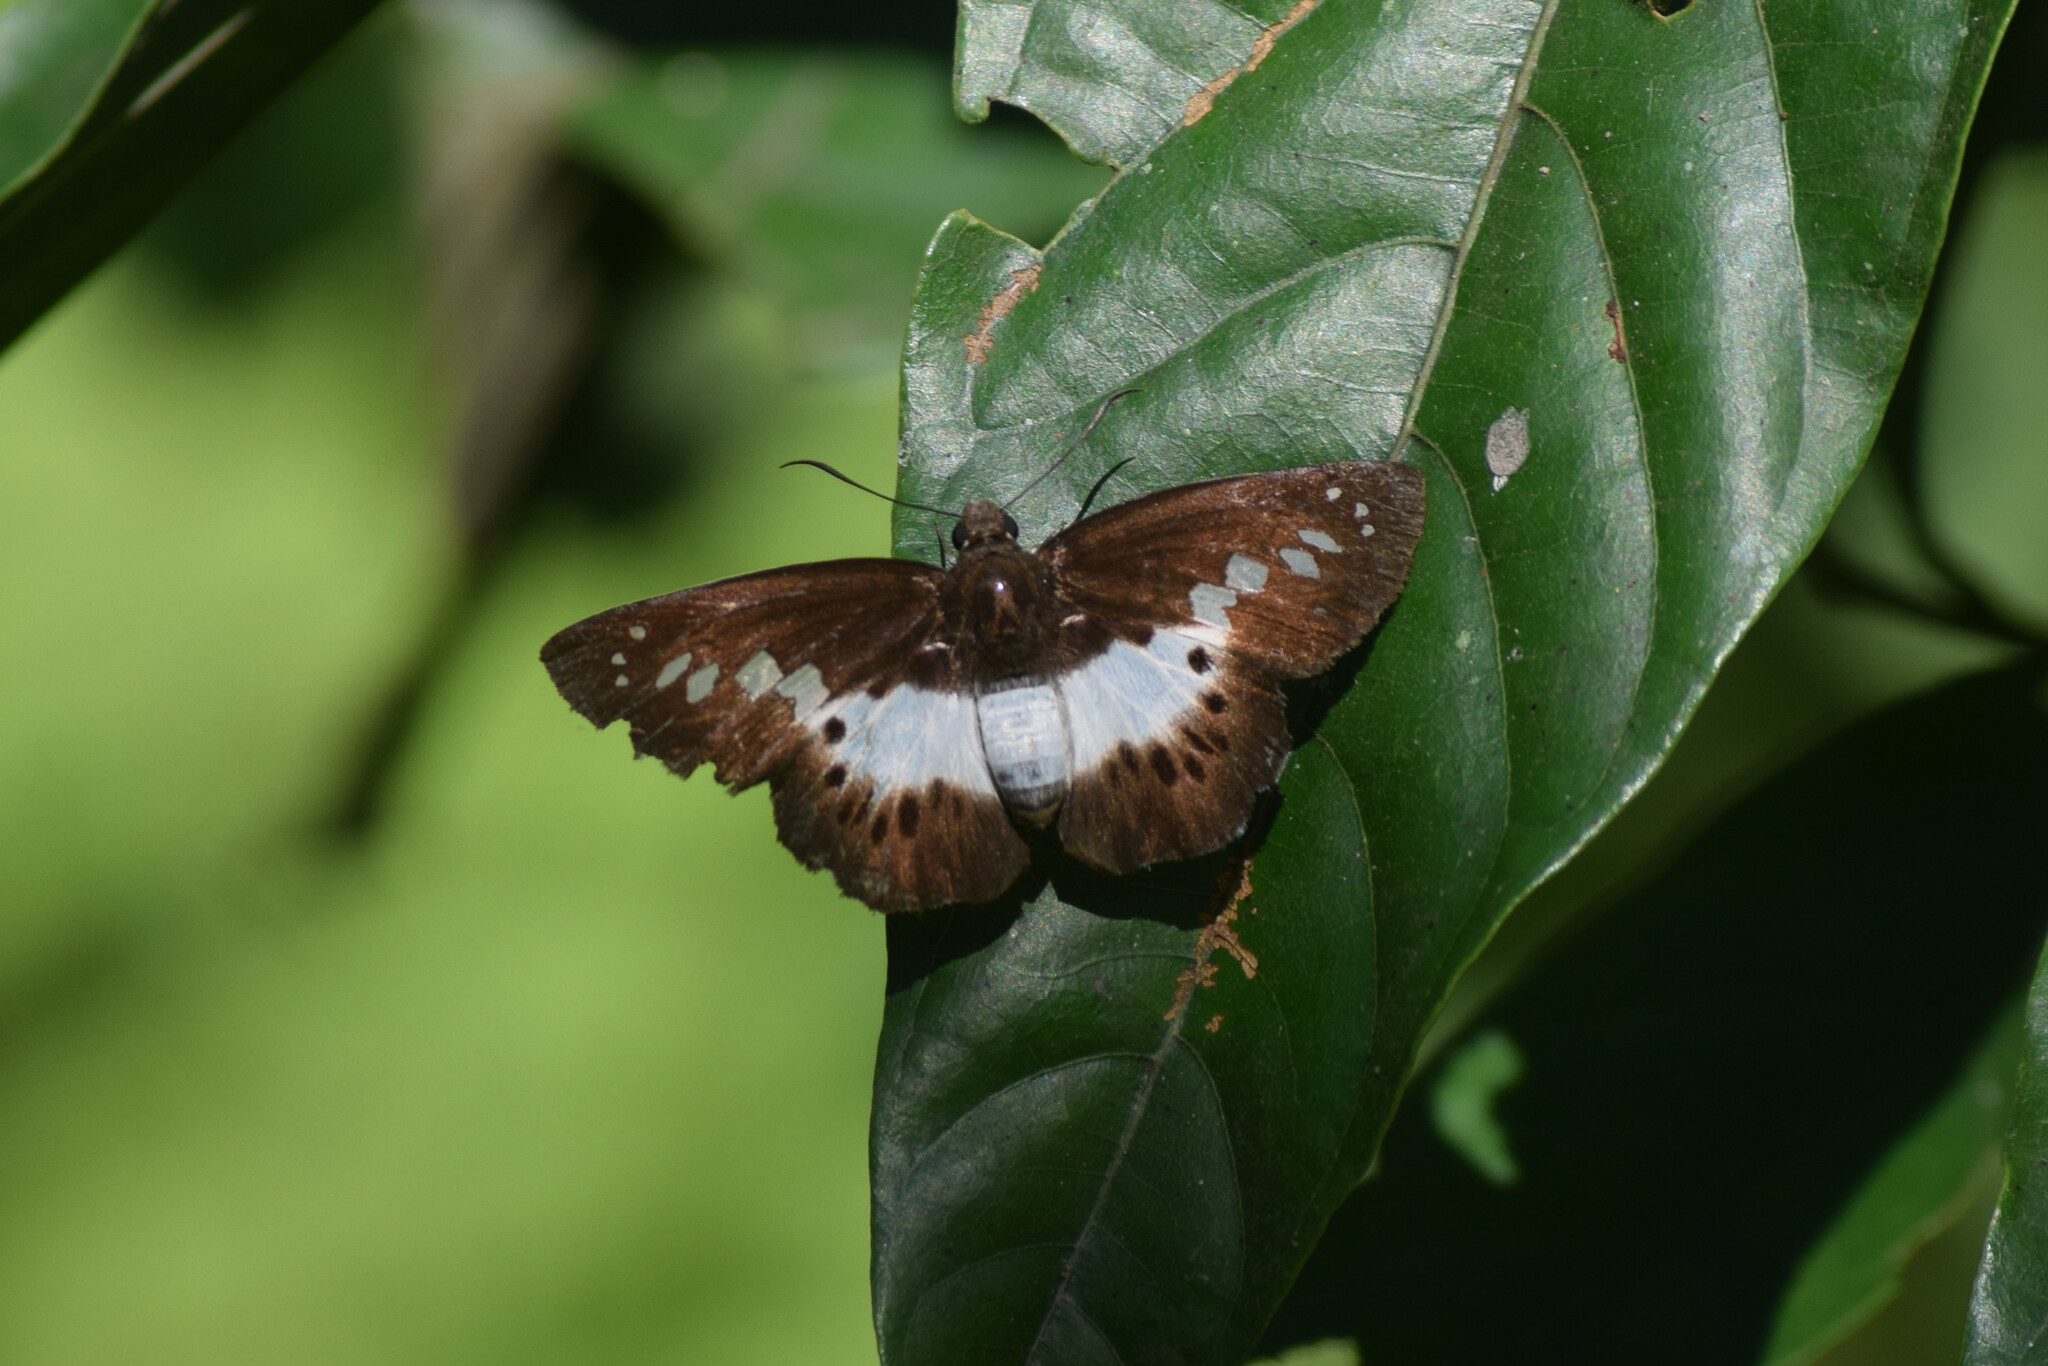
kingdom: Animalia
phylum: Arthropoda
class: Insecta
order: Lepidoptera
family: Hesperiidae
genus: Seseria
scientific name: Seseria sambara
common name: Notched seseria
